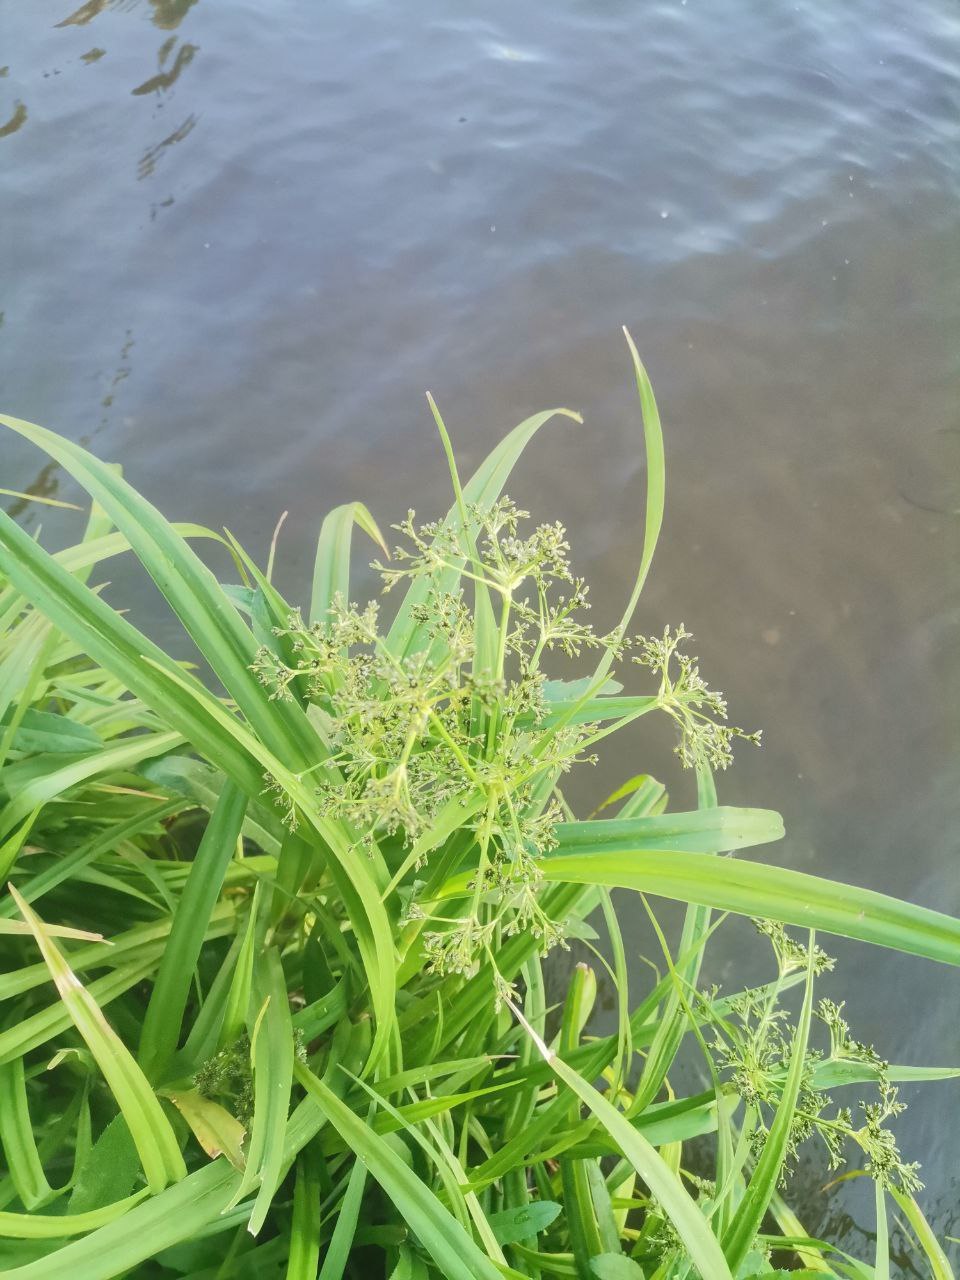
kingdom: Plantae
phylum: Tracheophyta
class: Liliopsida
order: Poales
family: Cyperaceae
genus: Scirpus
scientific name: Scirpus sylvaticus
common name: Wood club-rush
